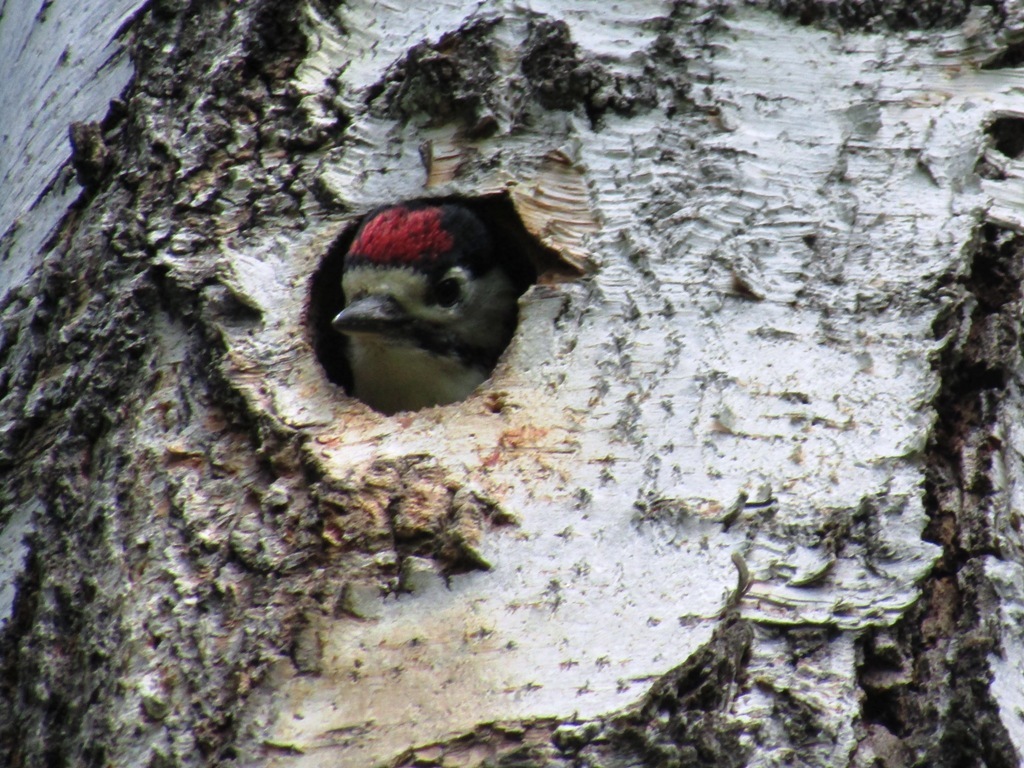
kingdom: Animalia
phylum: Chordata
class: Aves
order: Piciformes
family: Picidae
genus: Dendrocopos
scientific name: Dendrocopos major
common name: Great spotted woodpecker
